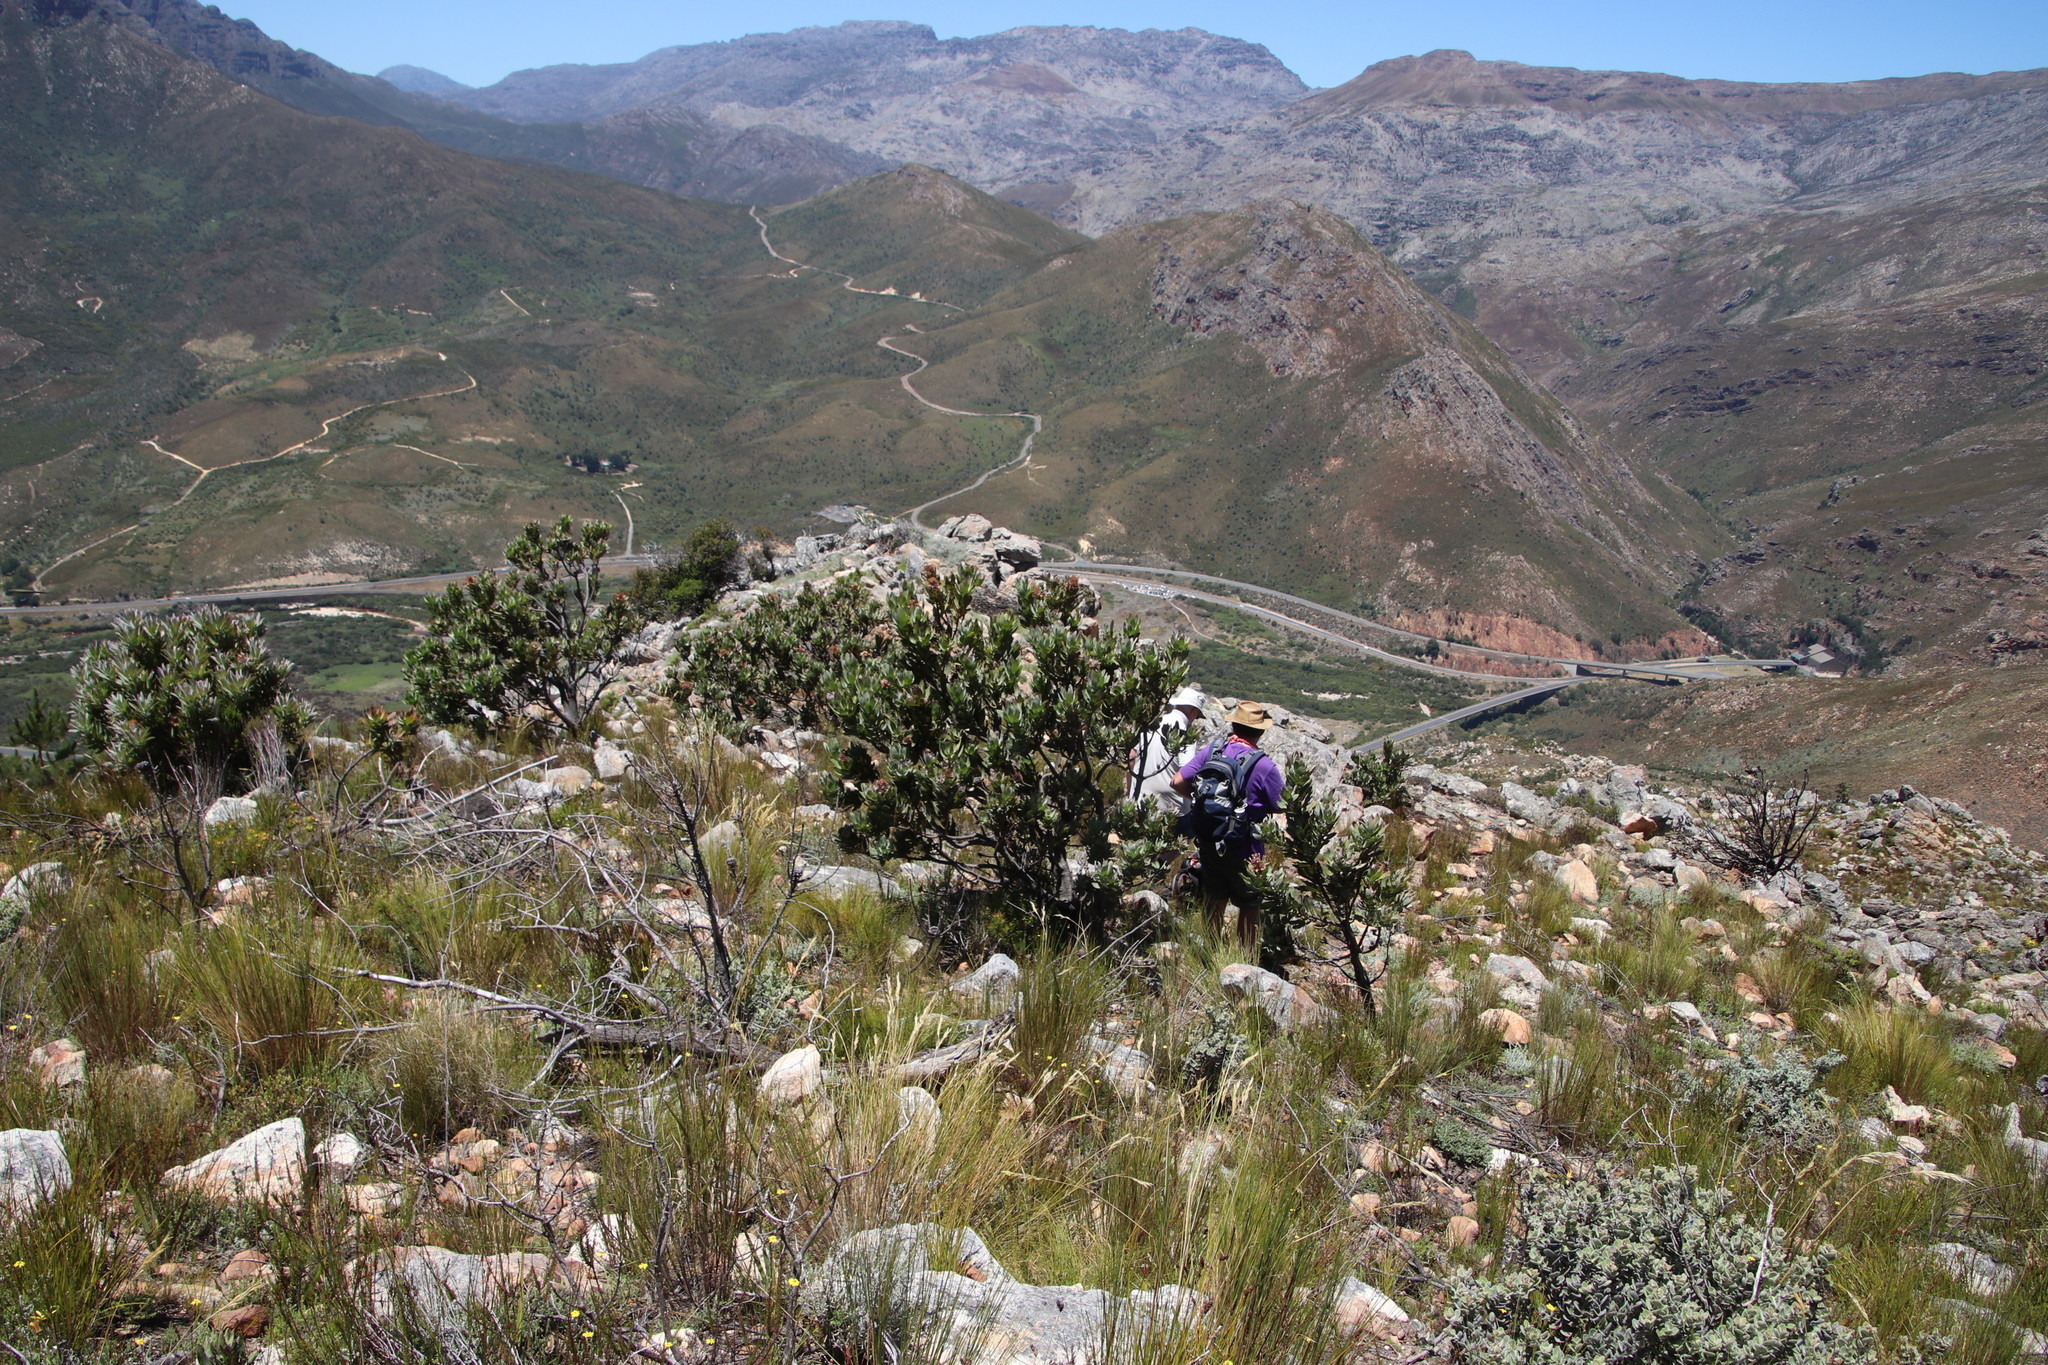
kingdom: Plantae
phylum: Tracheophyta
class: Magnoliopsida
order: Proteales
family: Proteaceae
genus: Protea
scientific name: Protea laurifolia
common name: Grey-leaf sugarbsh
